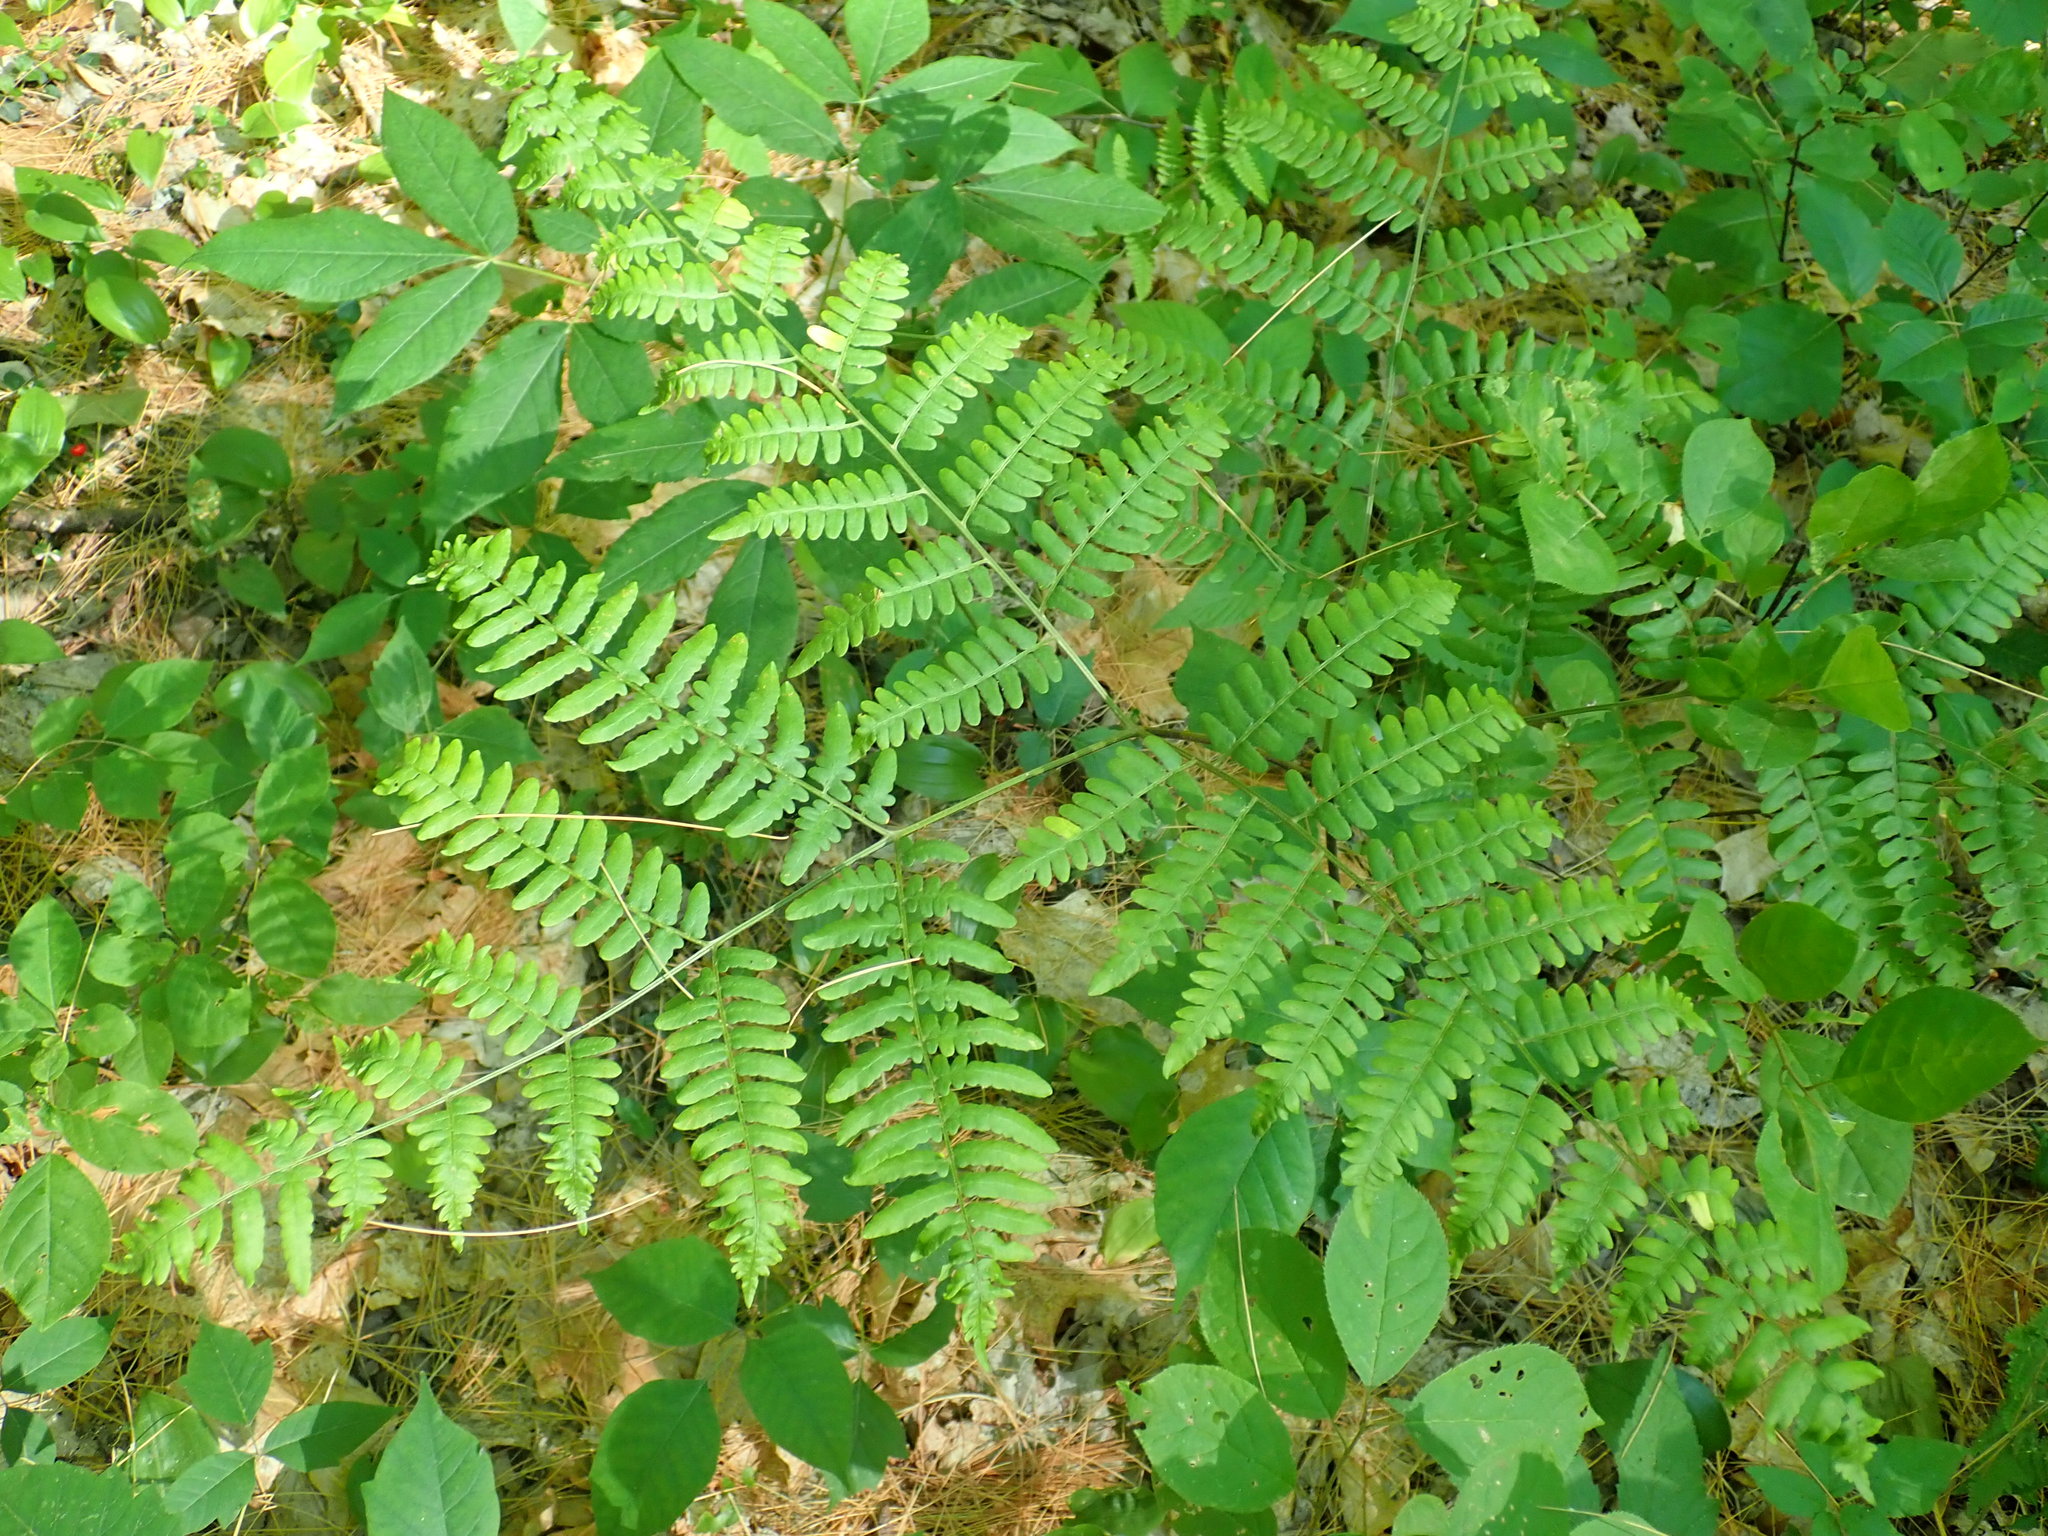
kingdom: Plantae
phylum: Tracheophyta
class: Polypodiopsida
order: Polypodiales
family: Dennstaedtiaceae
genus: Pteridium
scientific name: Pteridium aquilinum
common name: Bracken
